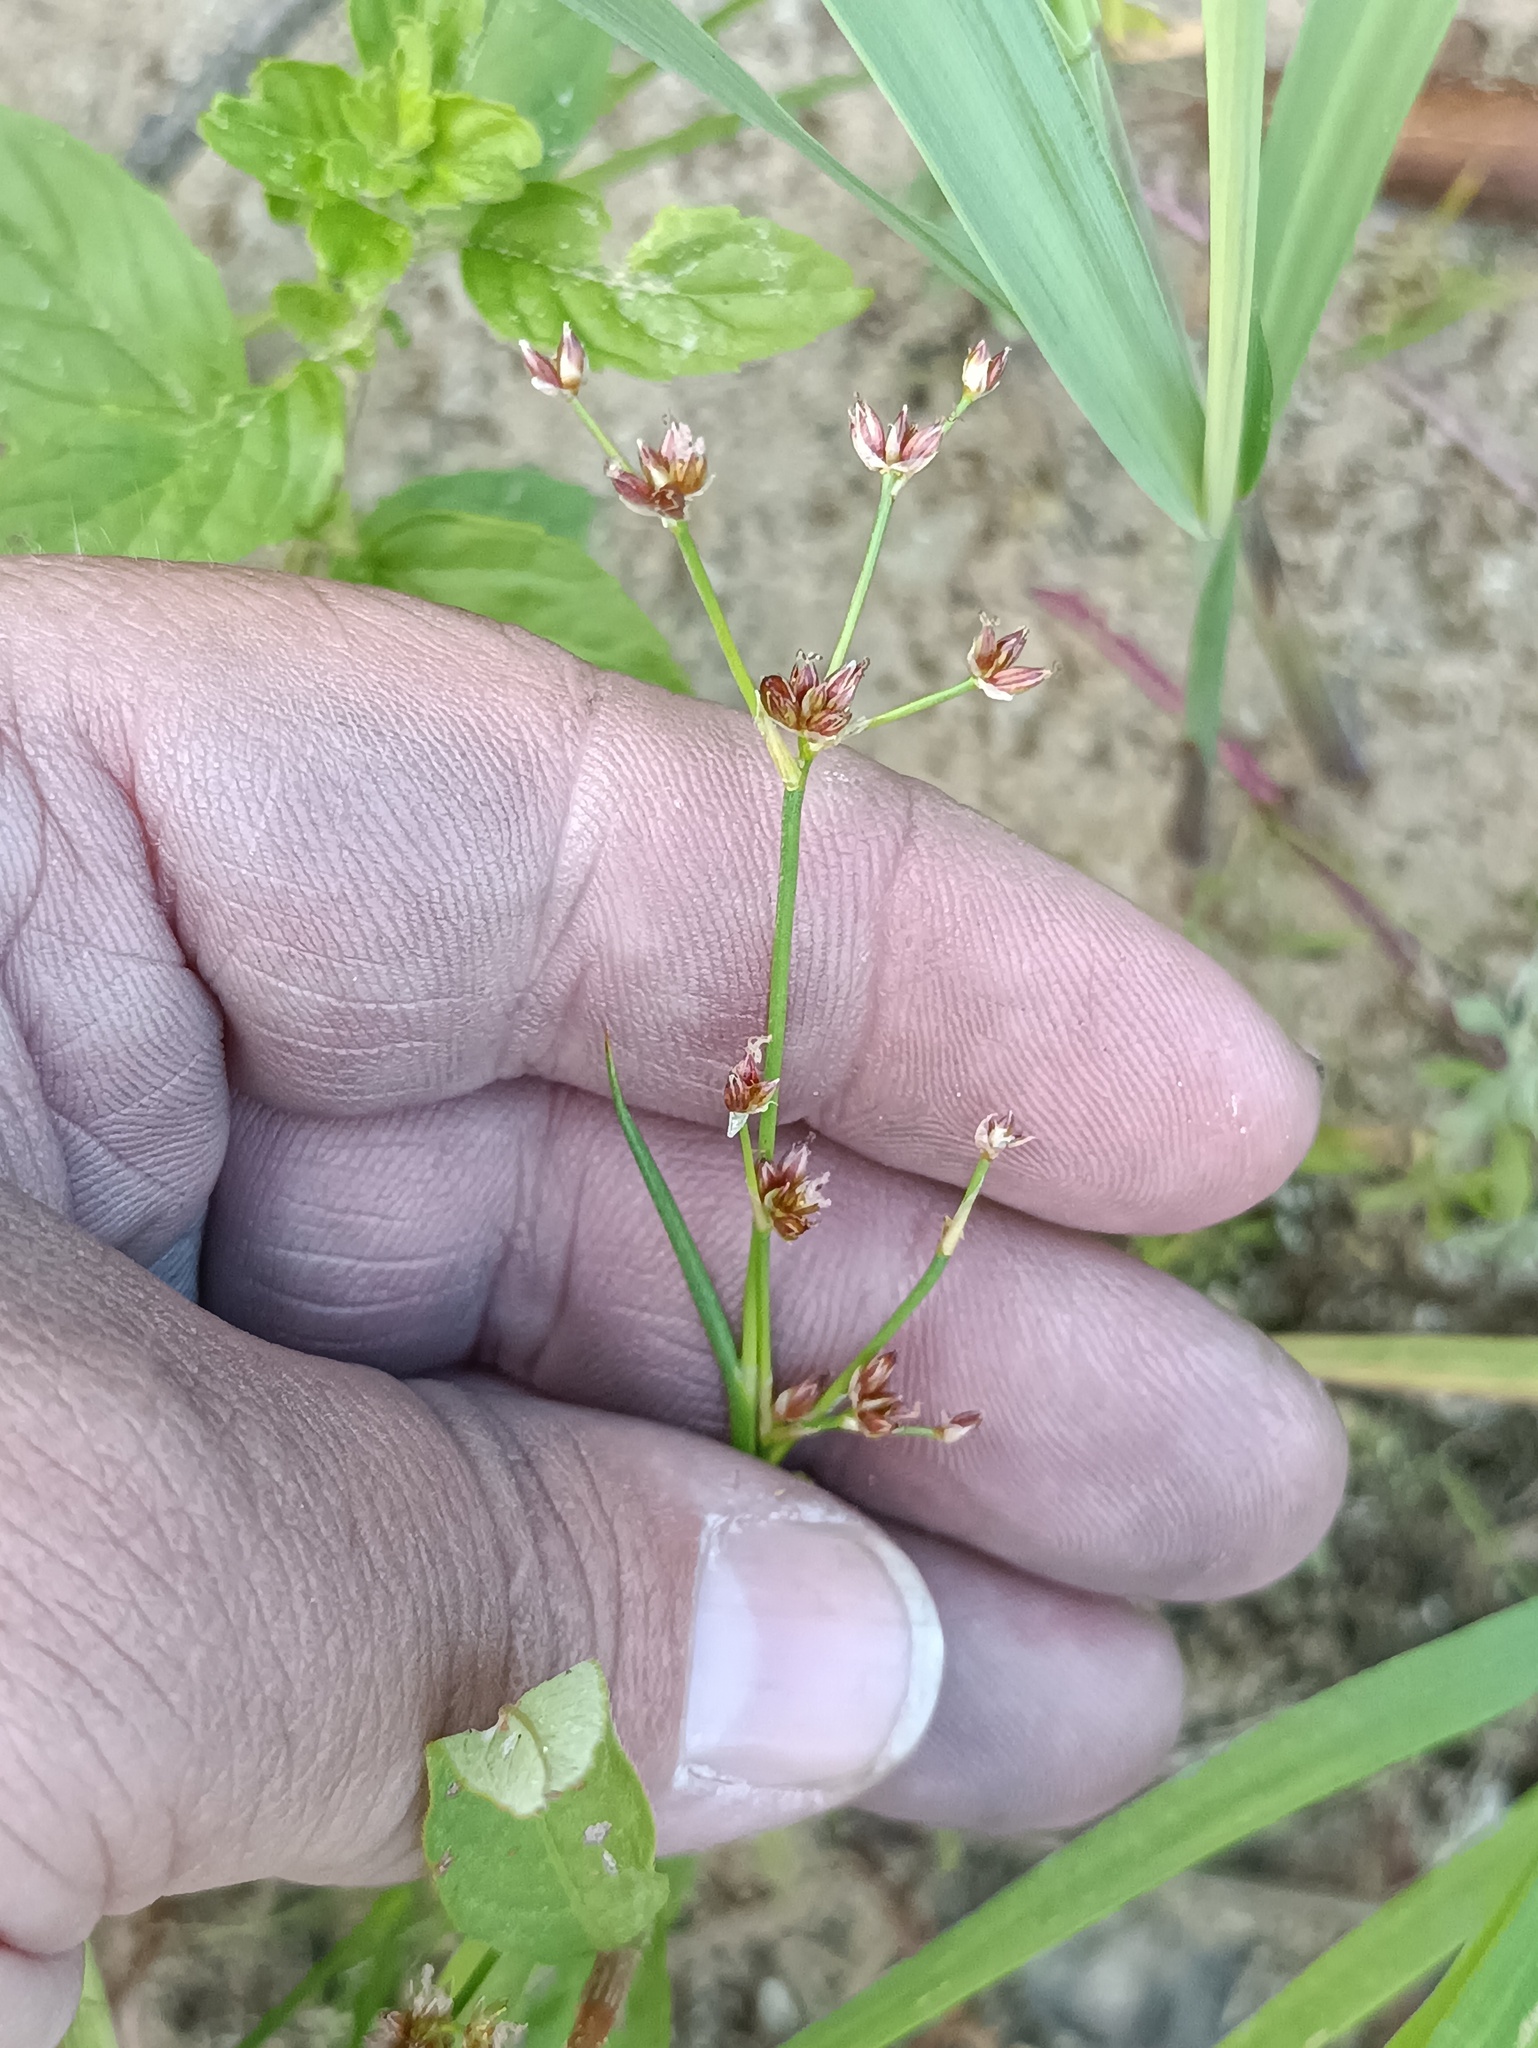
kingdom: Plantae
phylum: Tracheophyta
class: Liliopsida
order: Poales
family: Juncaceae
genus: Juncus
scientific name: Juncus articulatus
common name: Jointed rush
